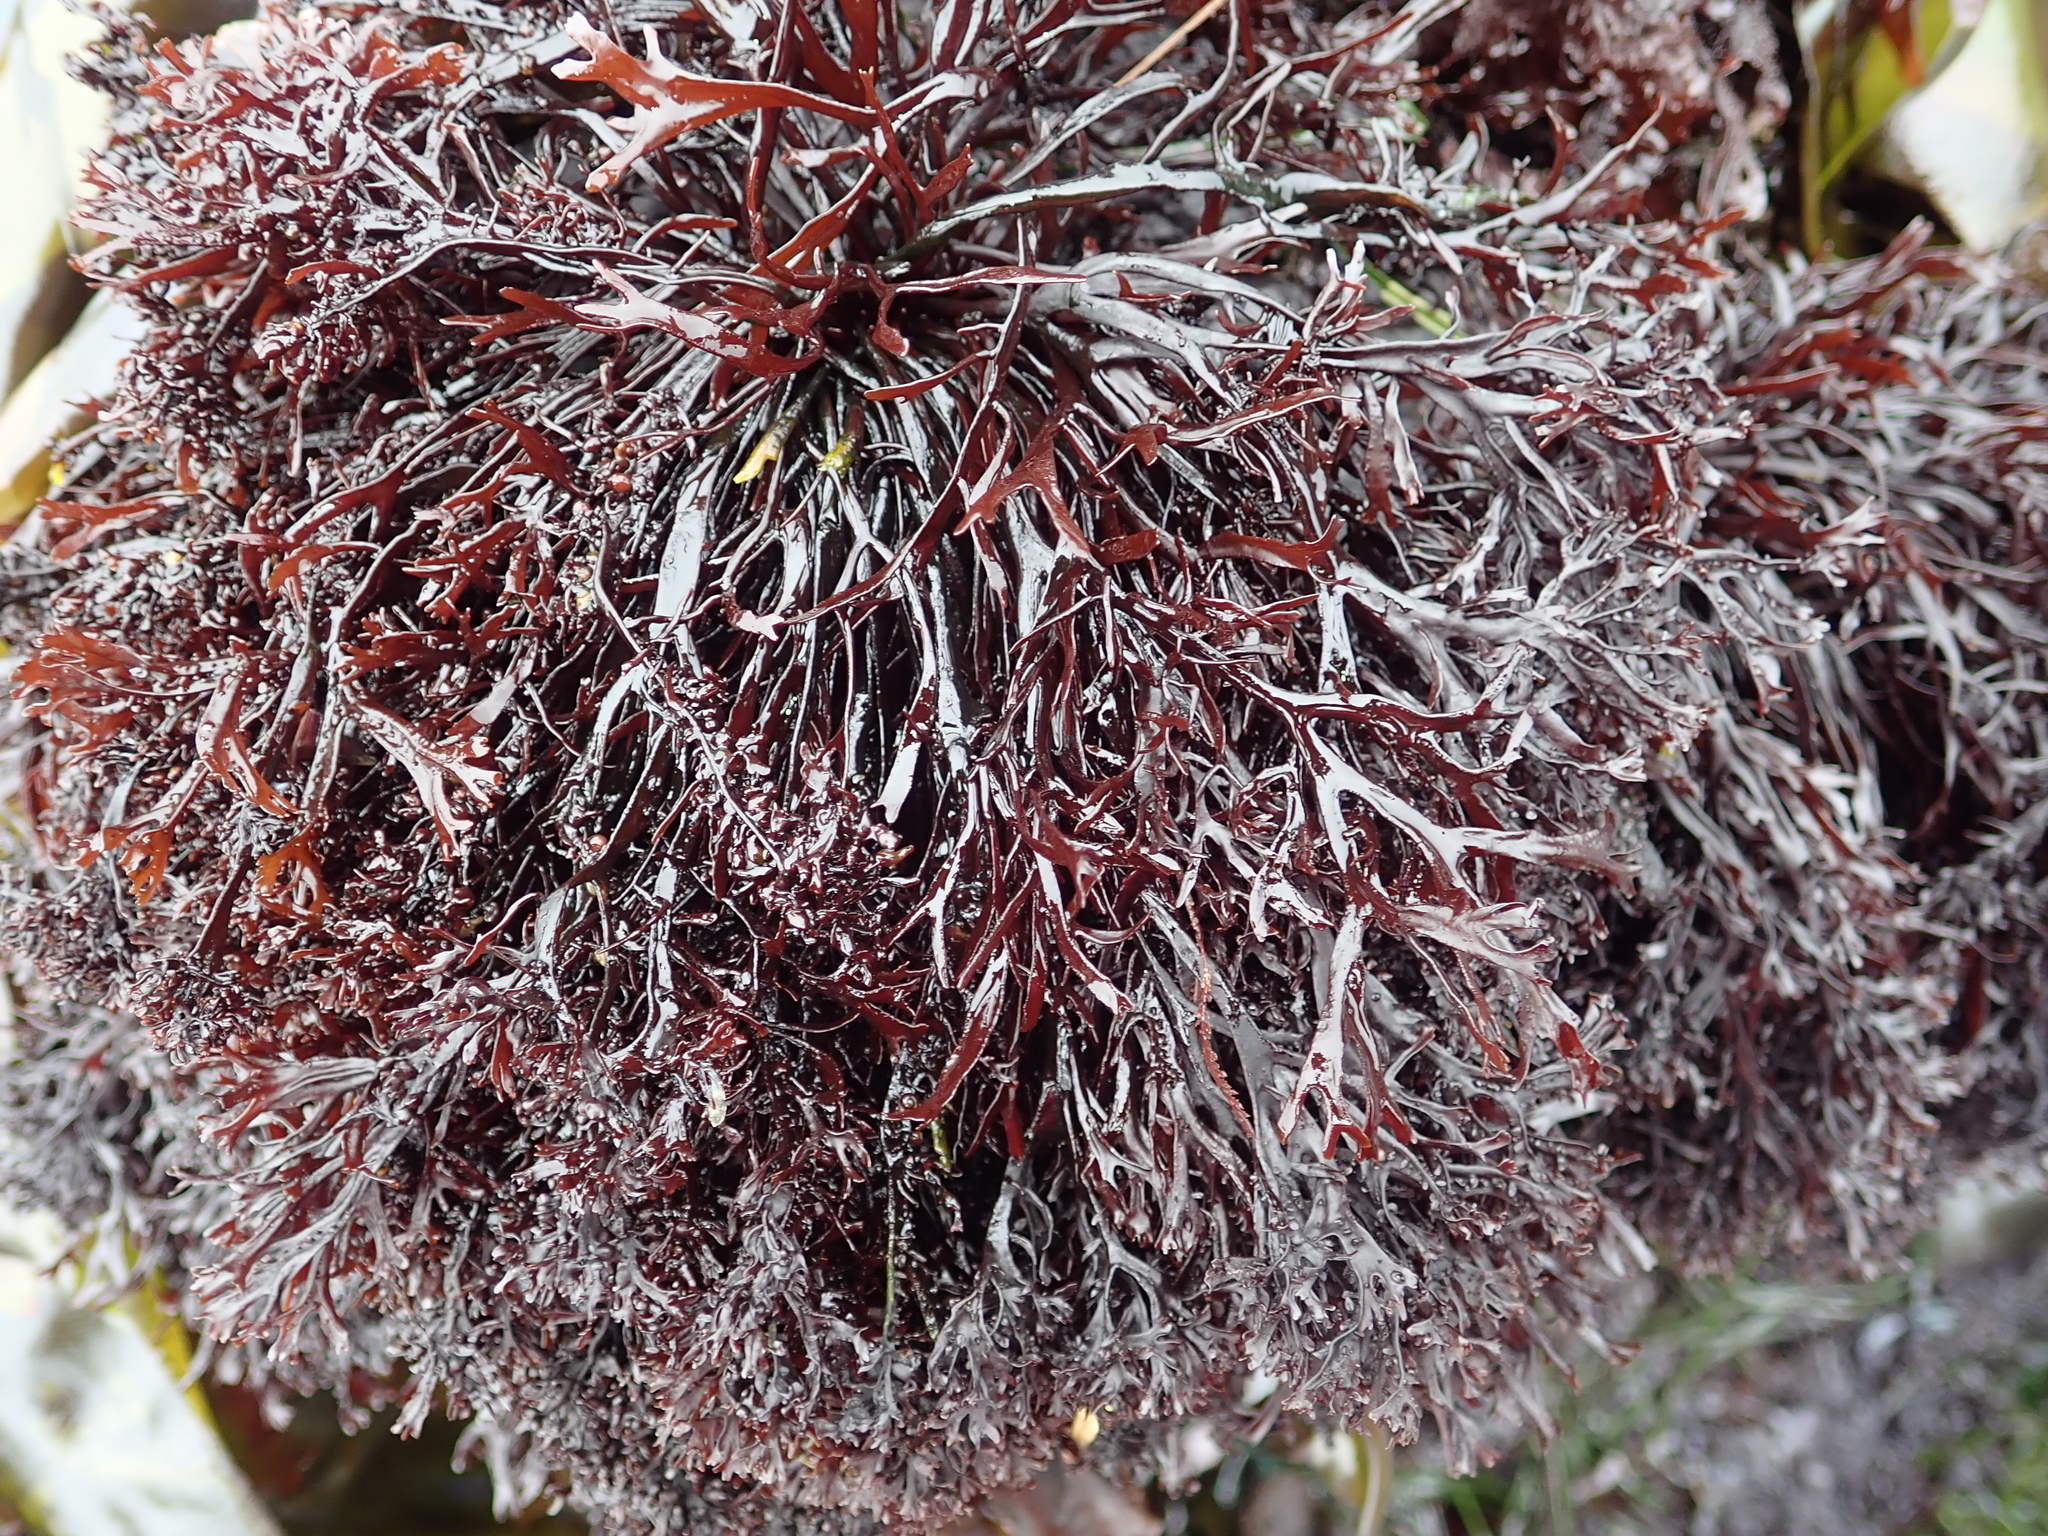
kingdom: Plantae
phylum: Rhodophyta
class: Florideophyceae
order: Gigartinales
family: Phyllophoraceae
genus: Mastocarpus
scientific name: Mastocarpus jardinii
